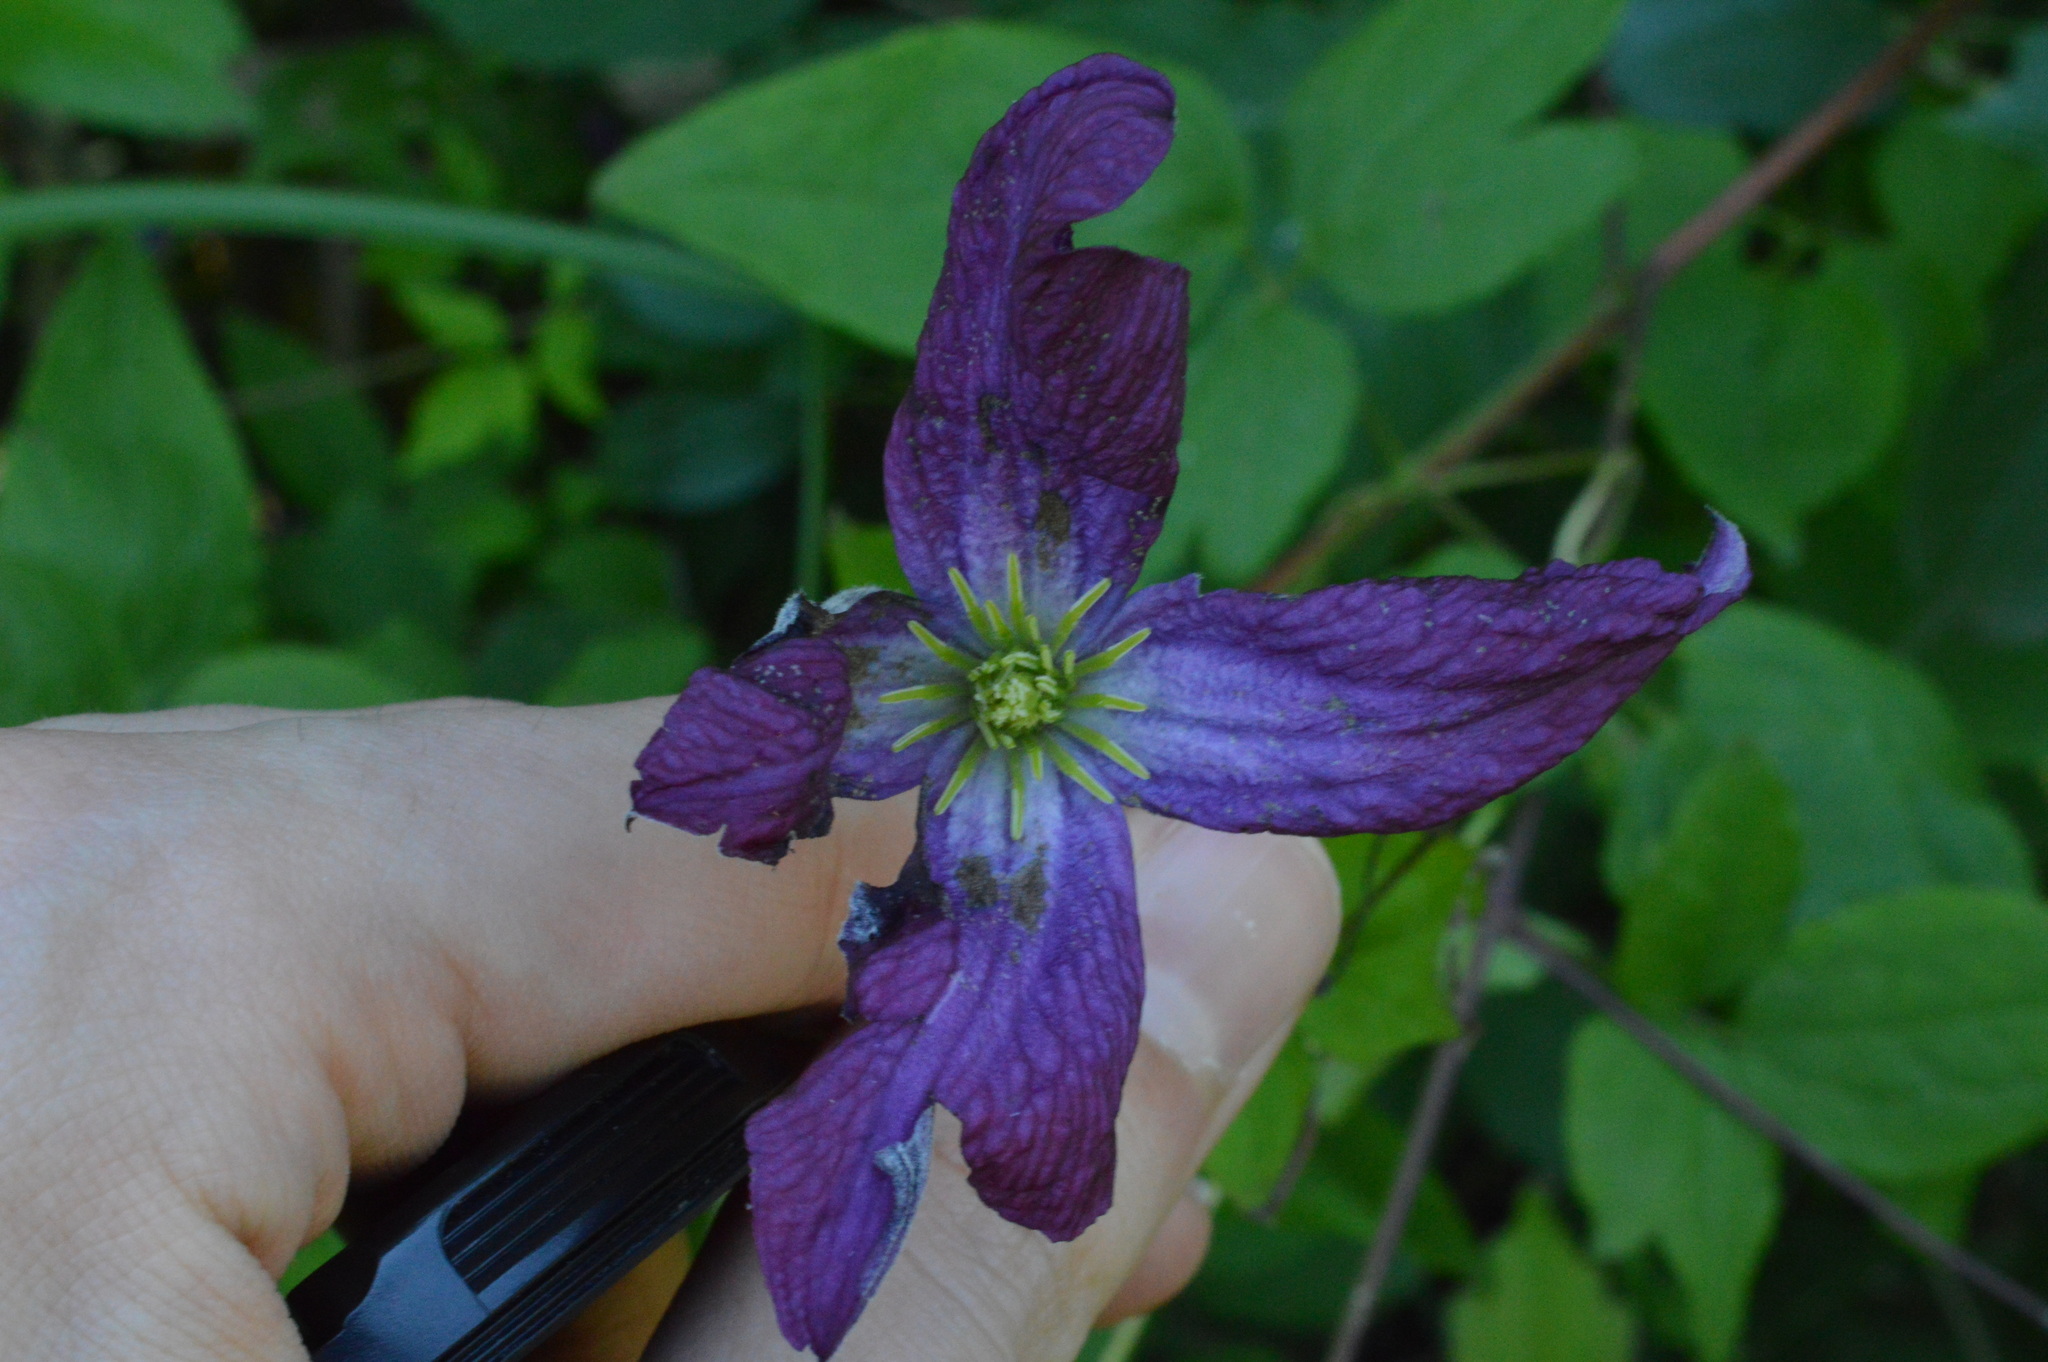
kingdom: Plantae
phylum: Tracheophyta
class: Magnoliopsida
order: Ranunculales
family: Ranunculaceae
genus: Clematis
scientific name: Clematis viticella
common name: Purple clematis
